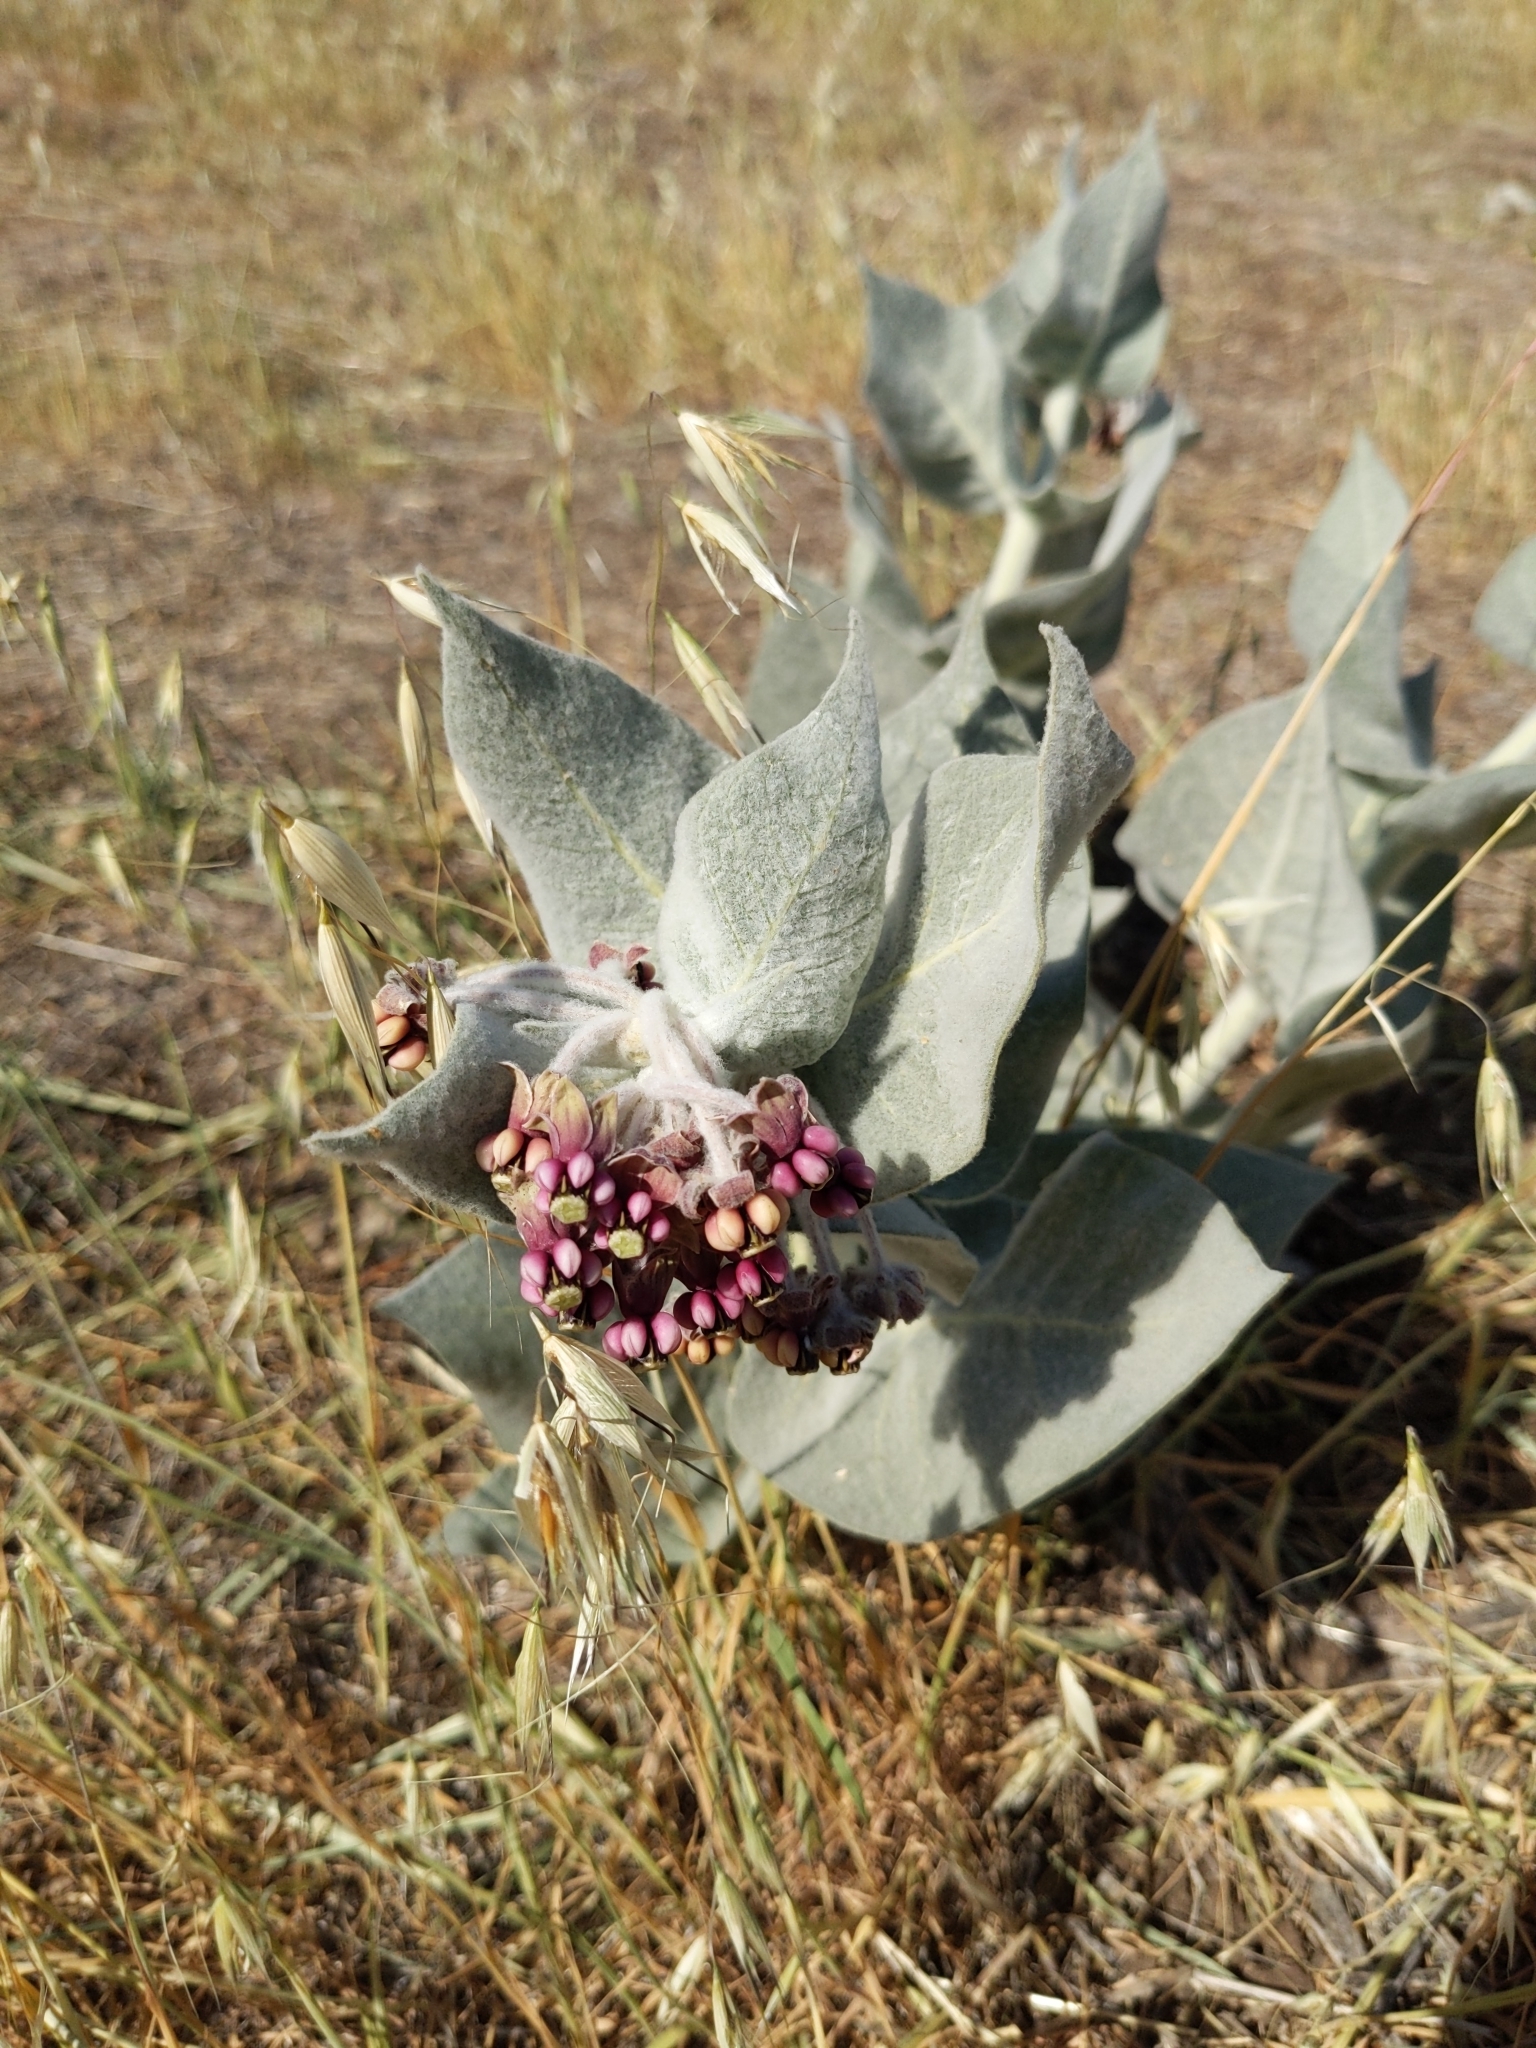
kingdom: Plantae
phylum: Tracheophyta
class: Magnoliopsida
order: Gentianales
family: Apocynaceae
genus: Asclepias
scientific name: Asclepias californica
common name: California milkweed
